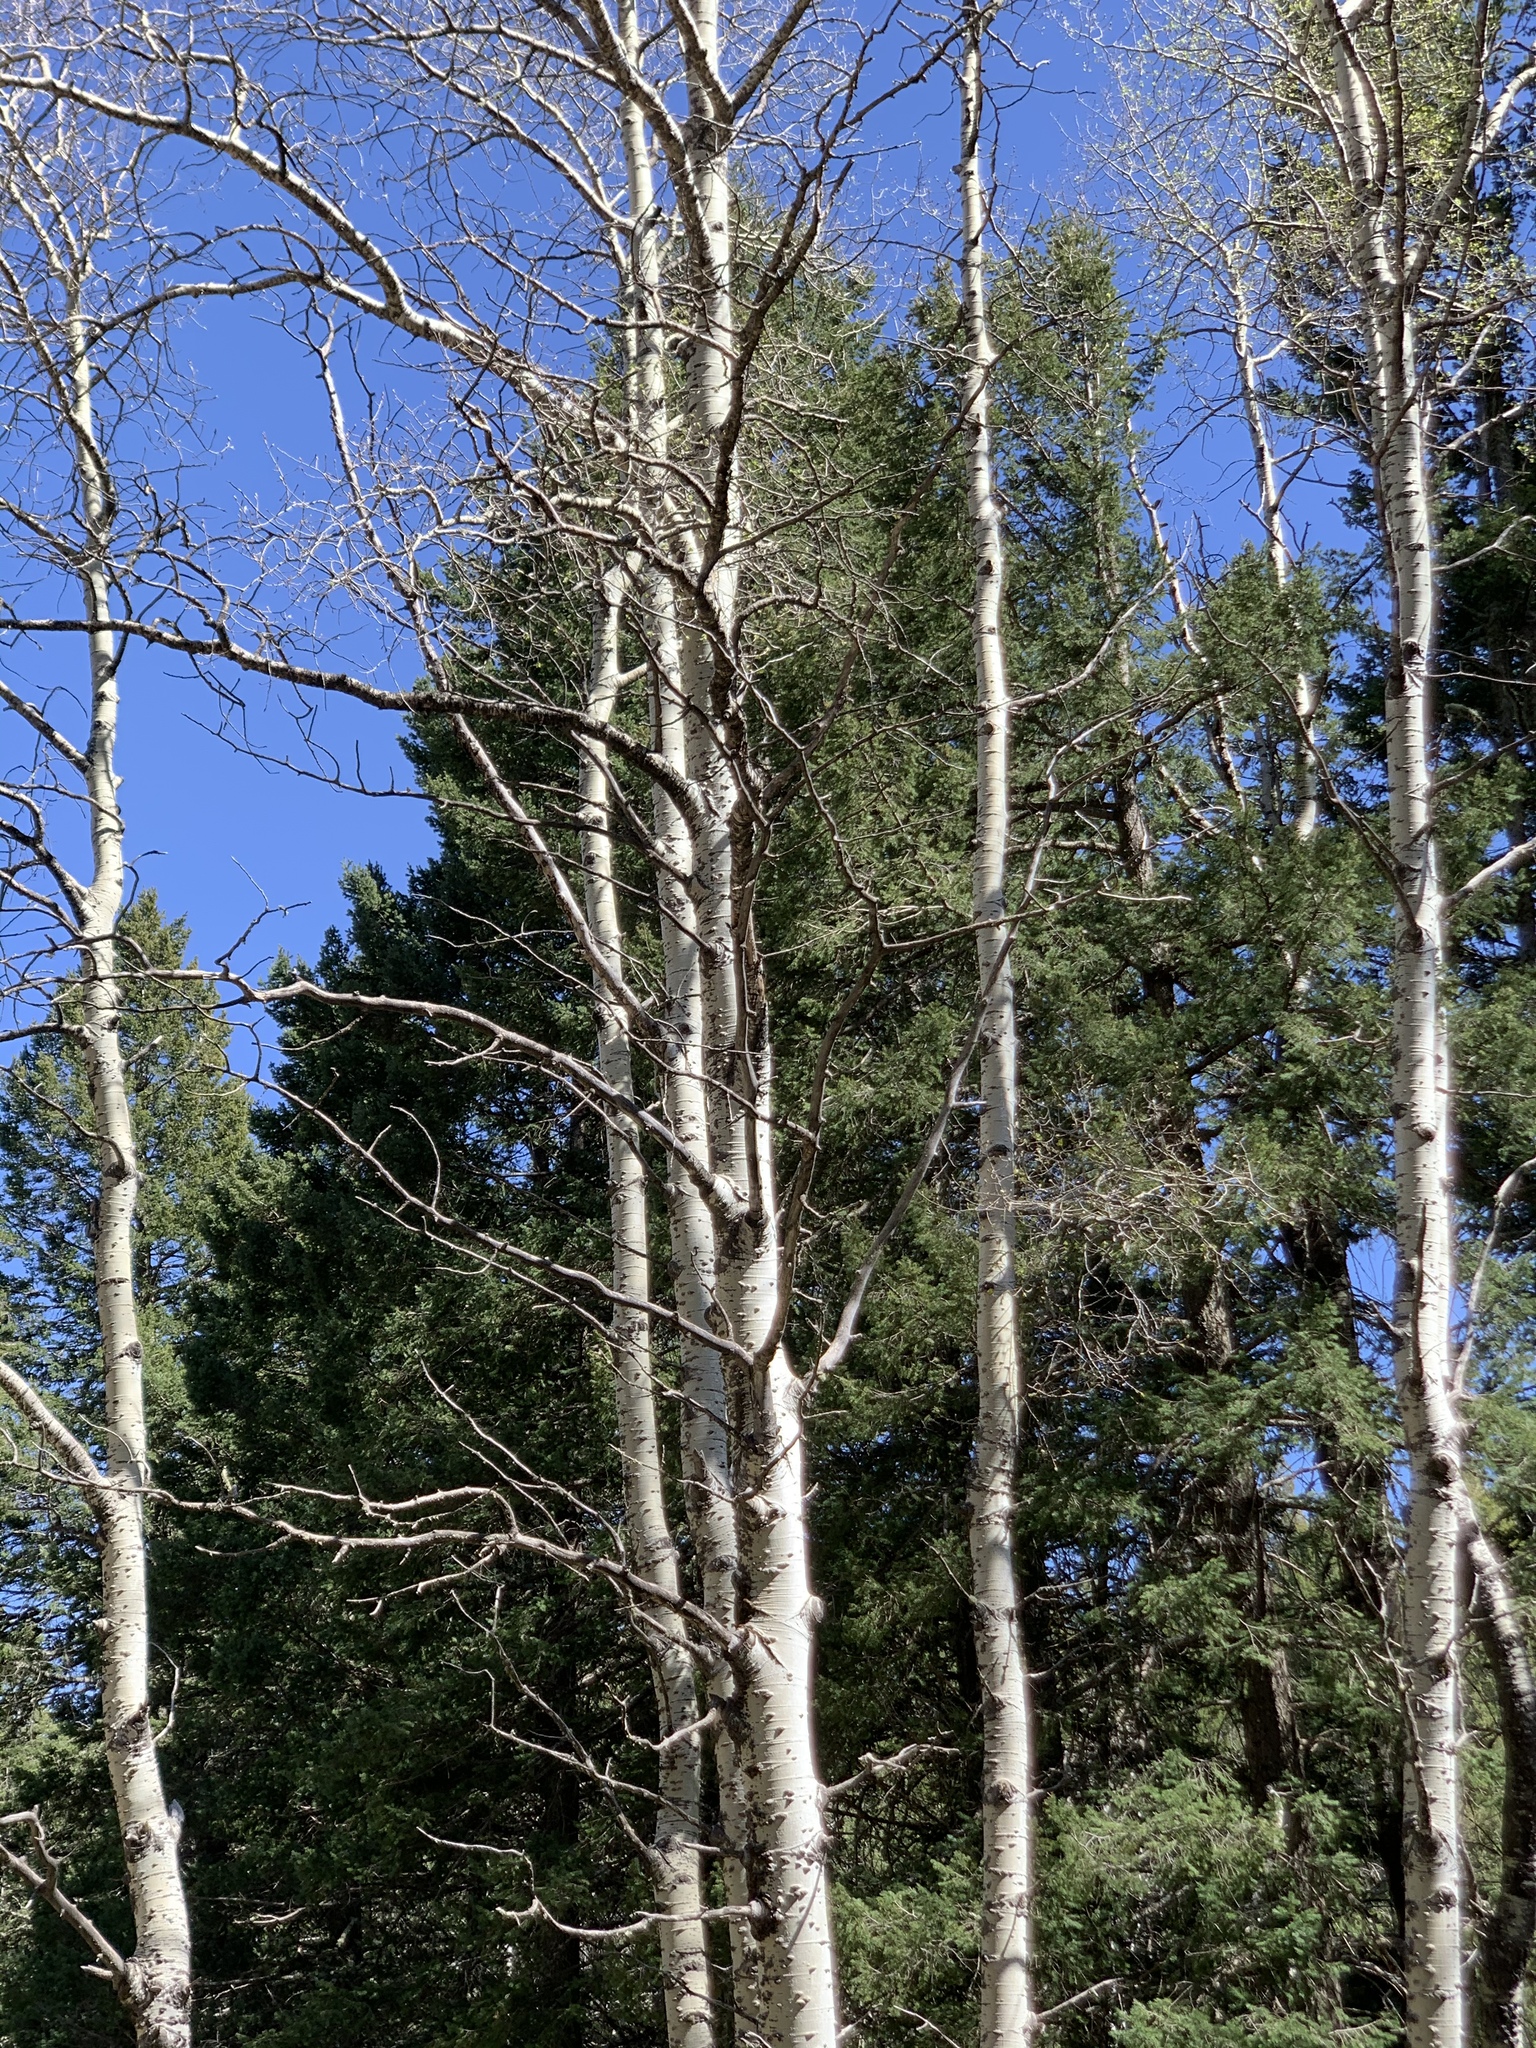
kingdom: Plantae
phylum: Tracheophyta
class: Magnoliopsida
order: Malpighiales
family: Salicaceae
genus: Populus
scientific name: Populus tremuloides
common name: Quaking aspen
